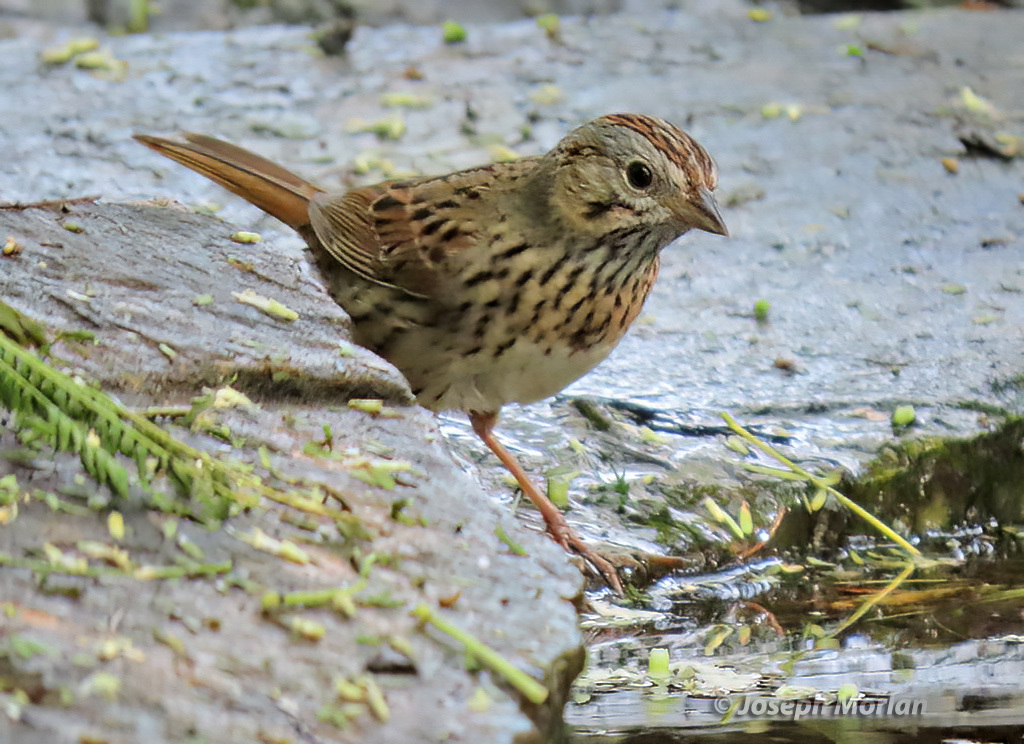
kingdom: Animalia
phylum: Chordata
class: Aves
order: Passeriformes
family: Passerellidae
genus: Melospiza
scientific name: Melospiza lincolnii
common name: Lincoln's sparrow
